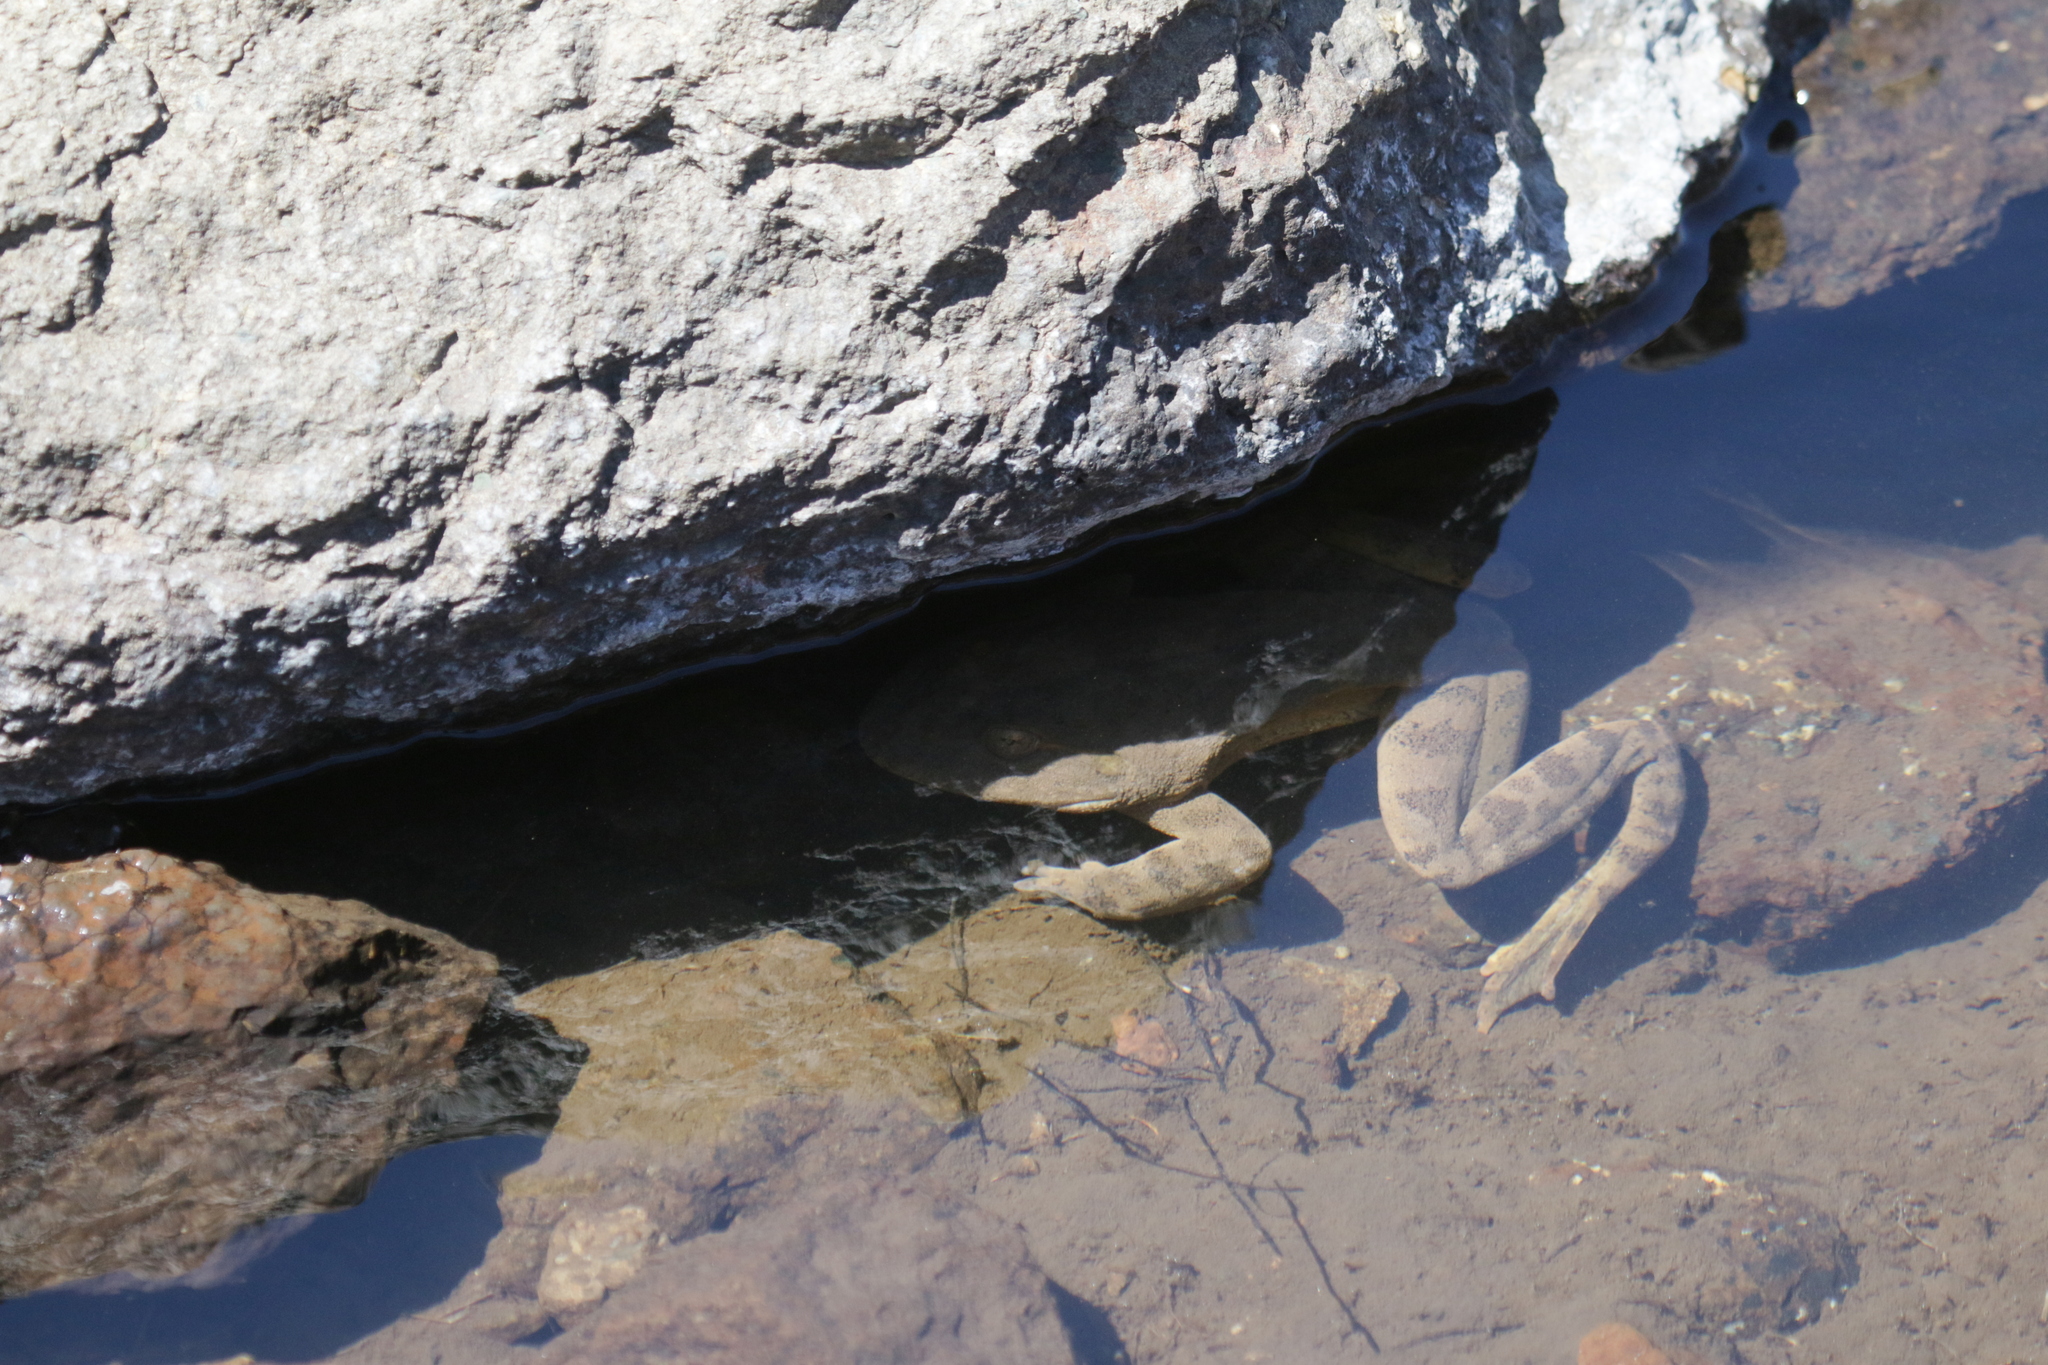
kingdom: Animalia
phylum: Chordata
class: Amphibia
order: Anura
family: Pyxicephalidae
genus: Amietia
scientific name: Amietia vertebralis
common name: Drakensberg stream frog
